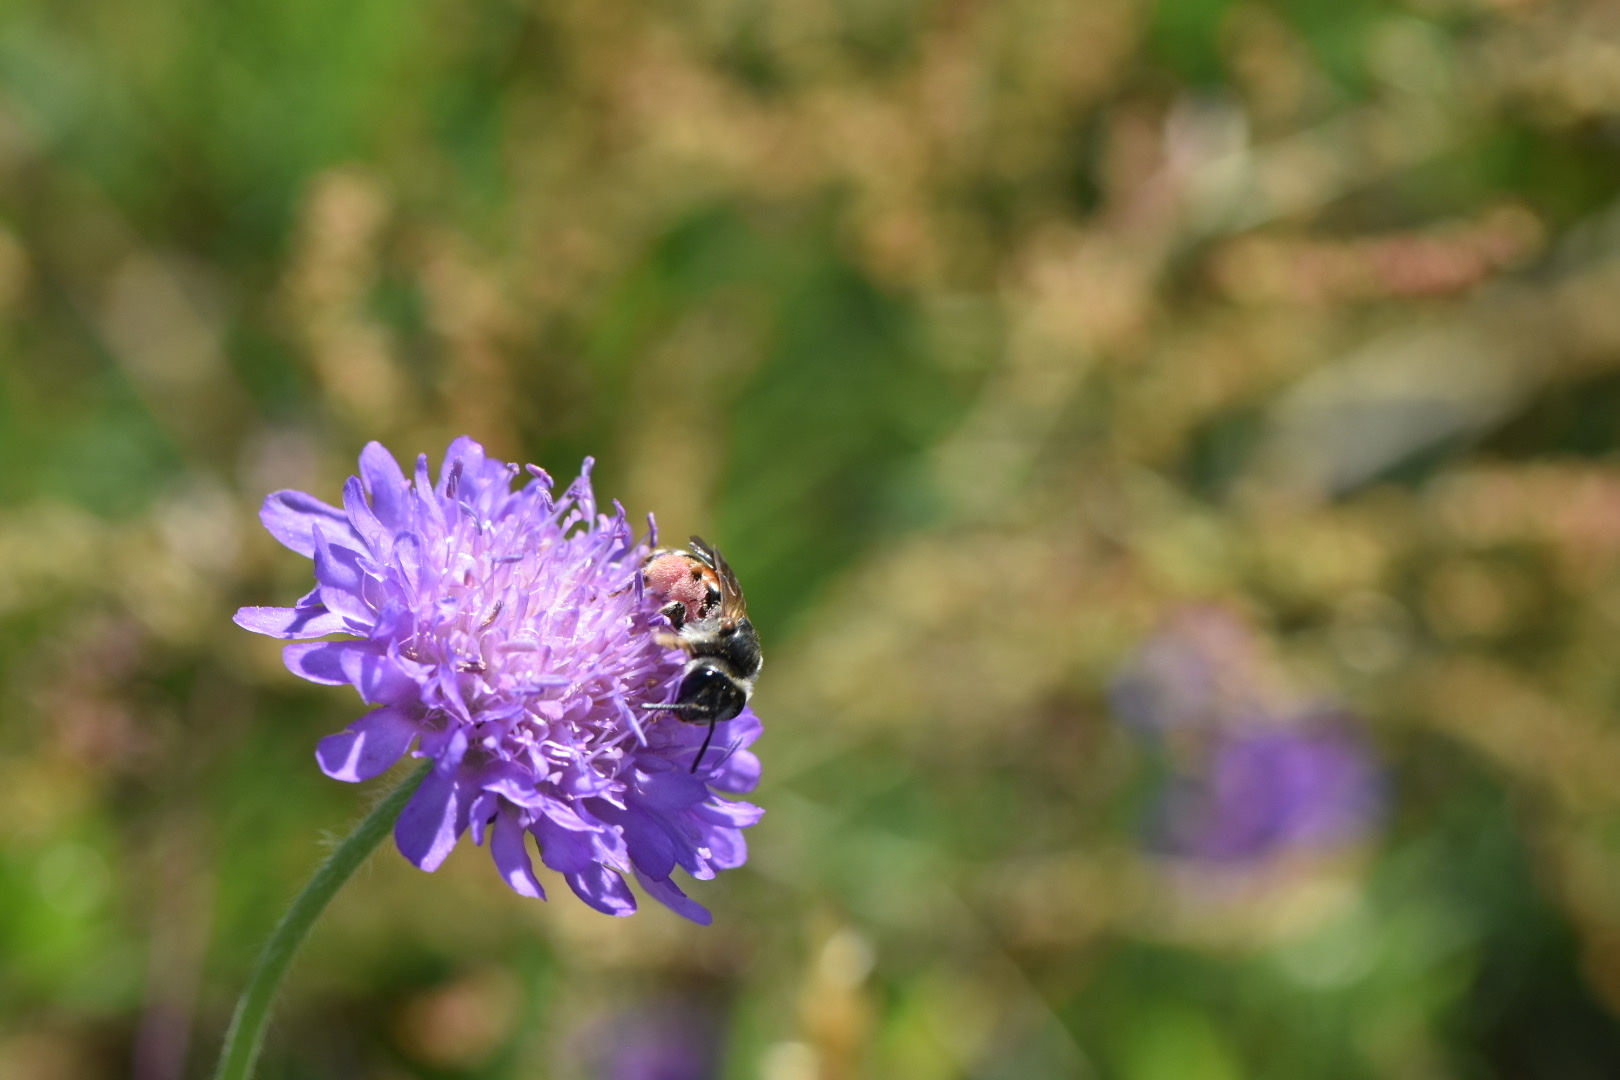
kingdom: Animalia
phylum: Arthropoda
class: Insecta
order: Hymenoptera
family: Andrenidae
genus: Andrena
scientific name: Andrena hattorfiana
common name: Large scabious mining bee
